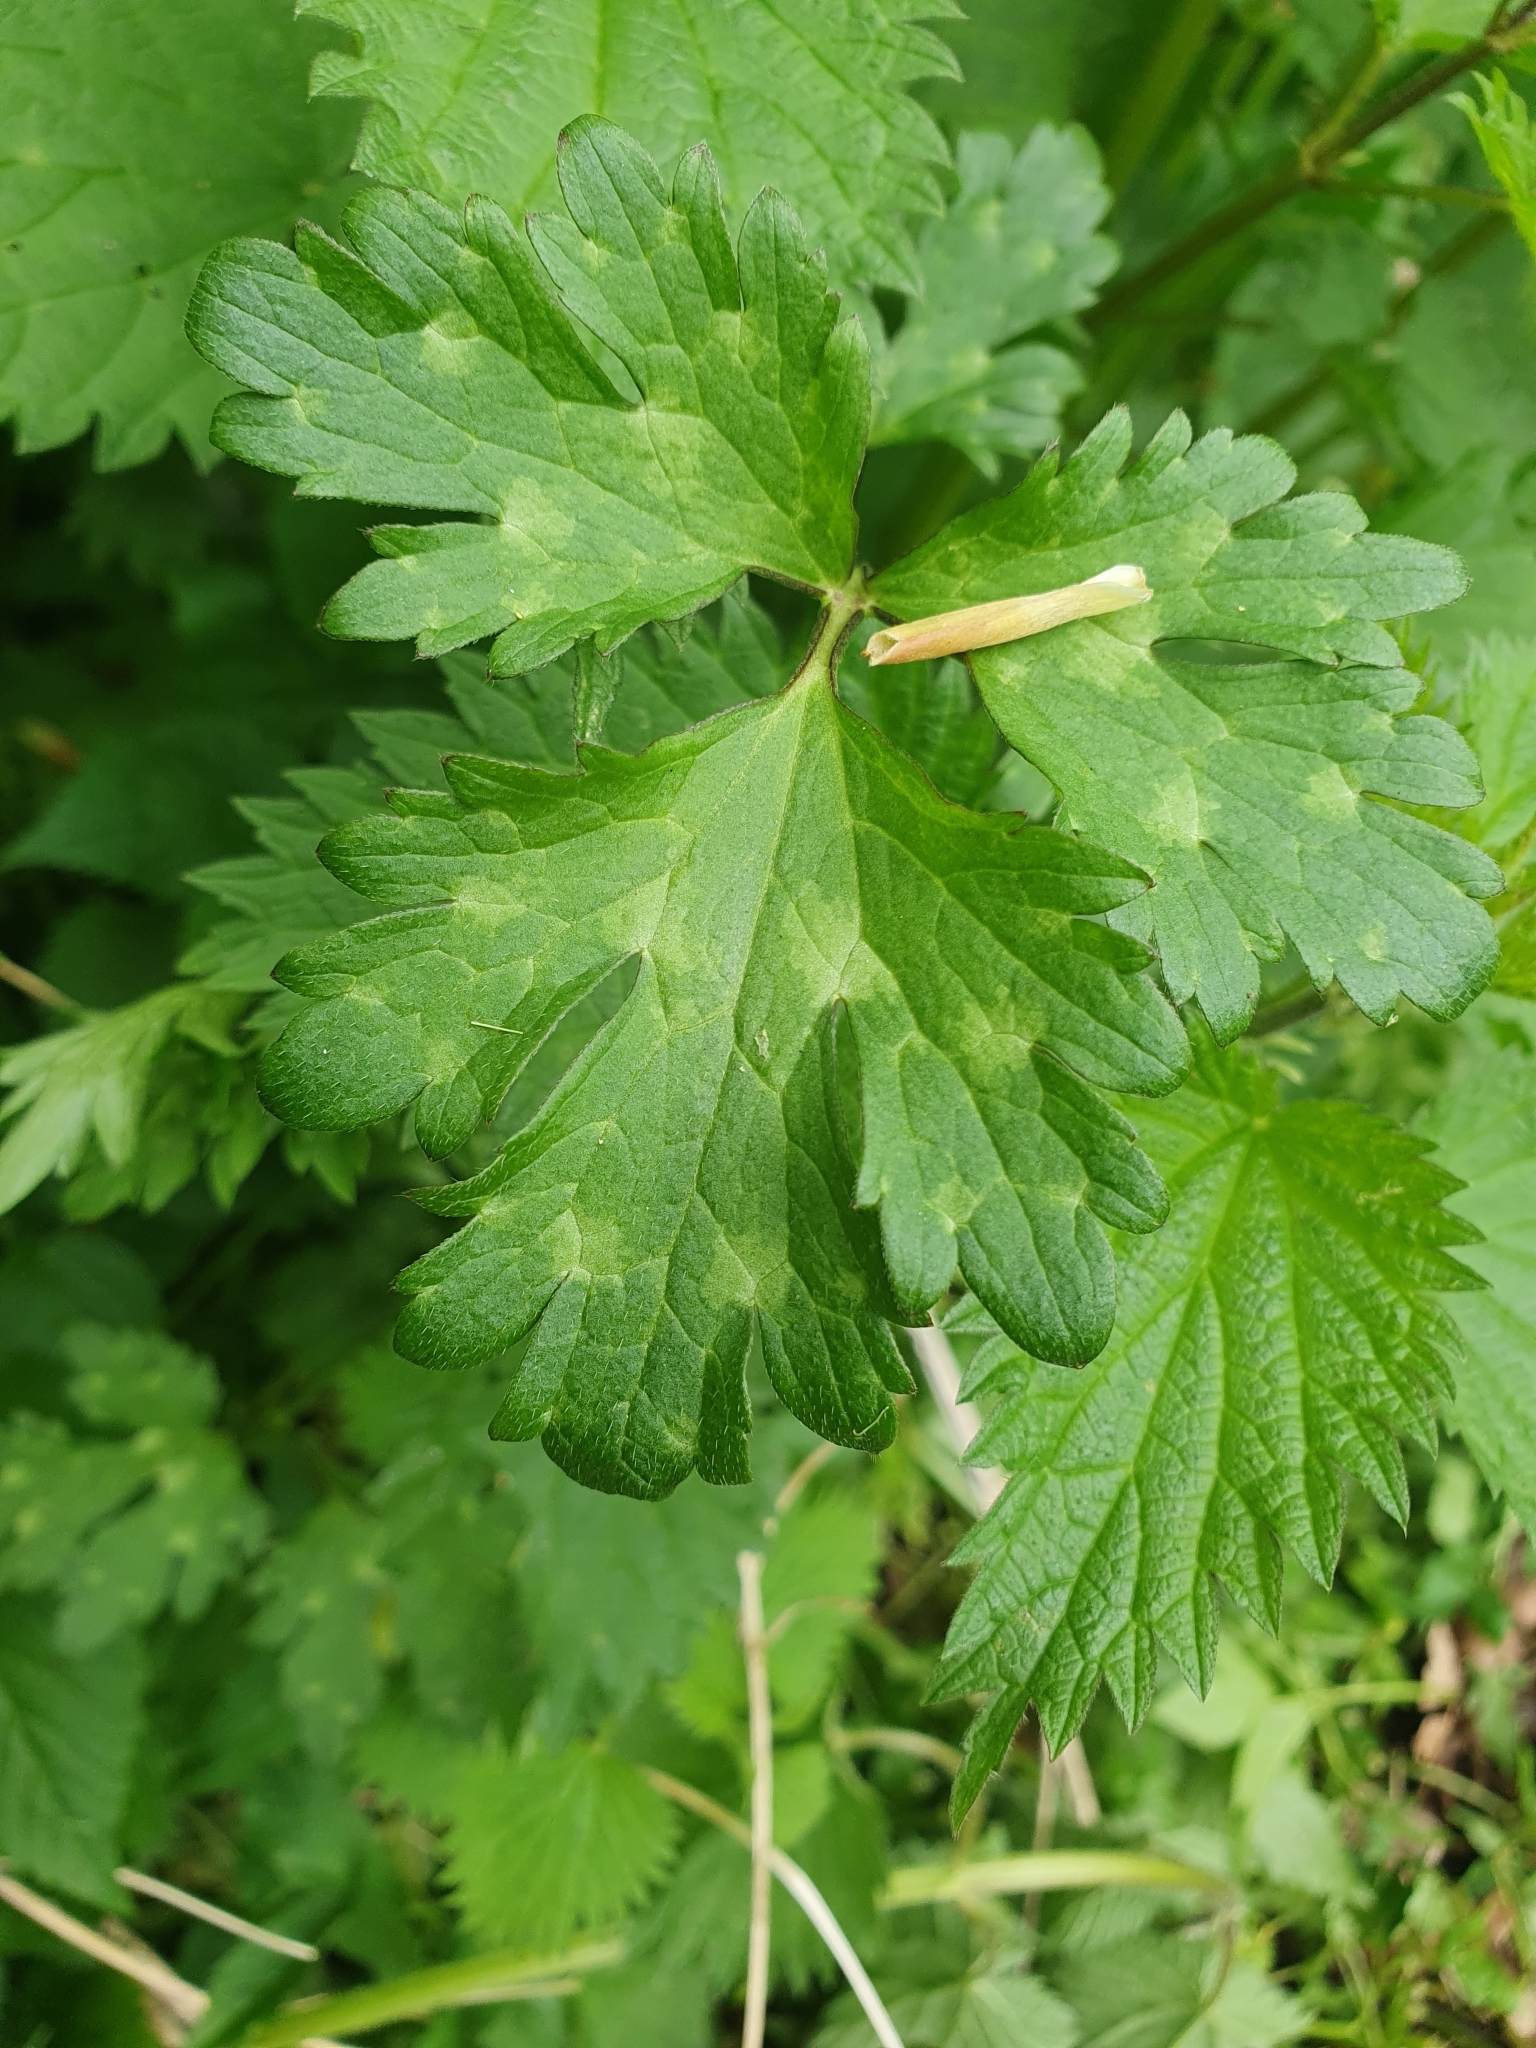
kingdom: Plantae
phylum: Tracheophyta
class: Magnoliopsida
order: Ranunculales
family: Ranunculaceae
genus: Ranunculus
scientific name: Ranunculus repens
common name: Creeping buttercup
